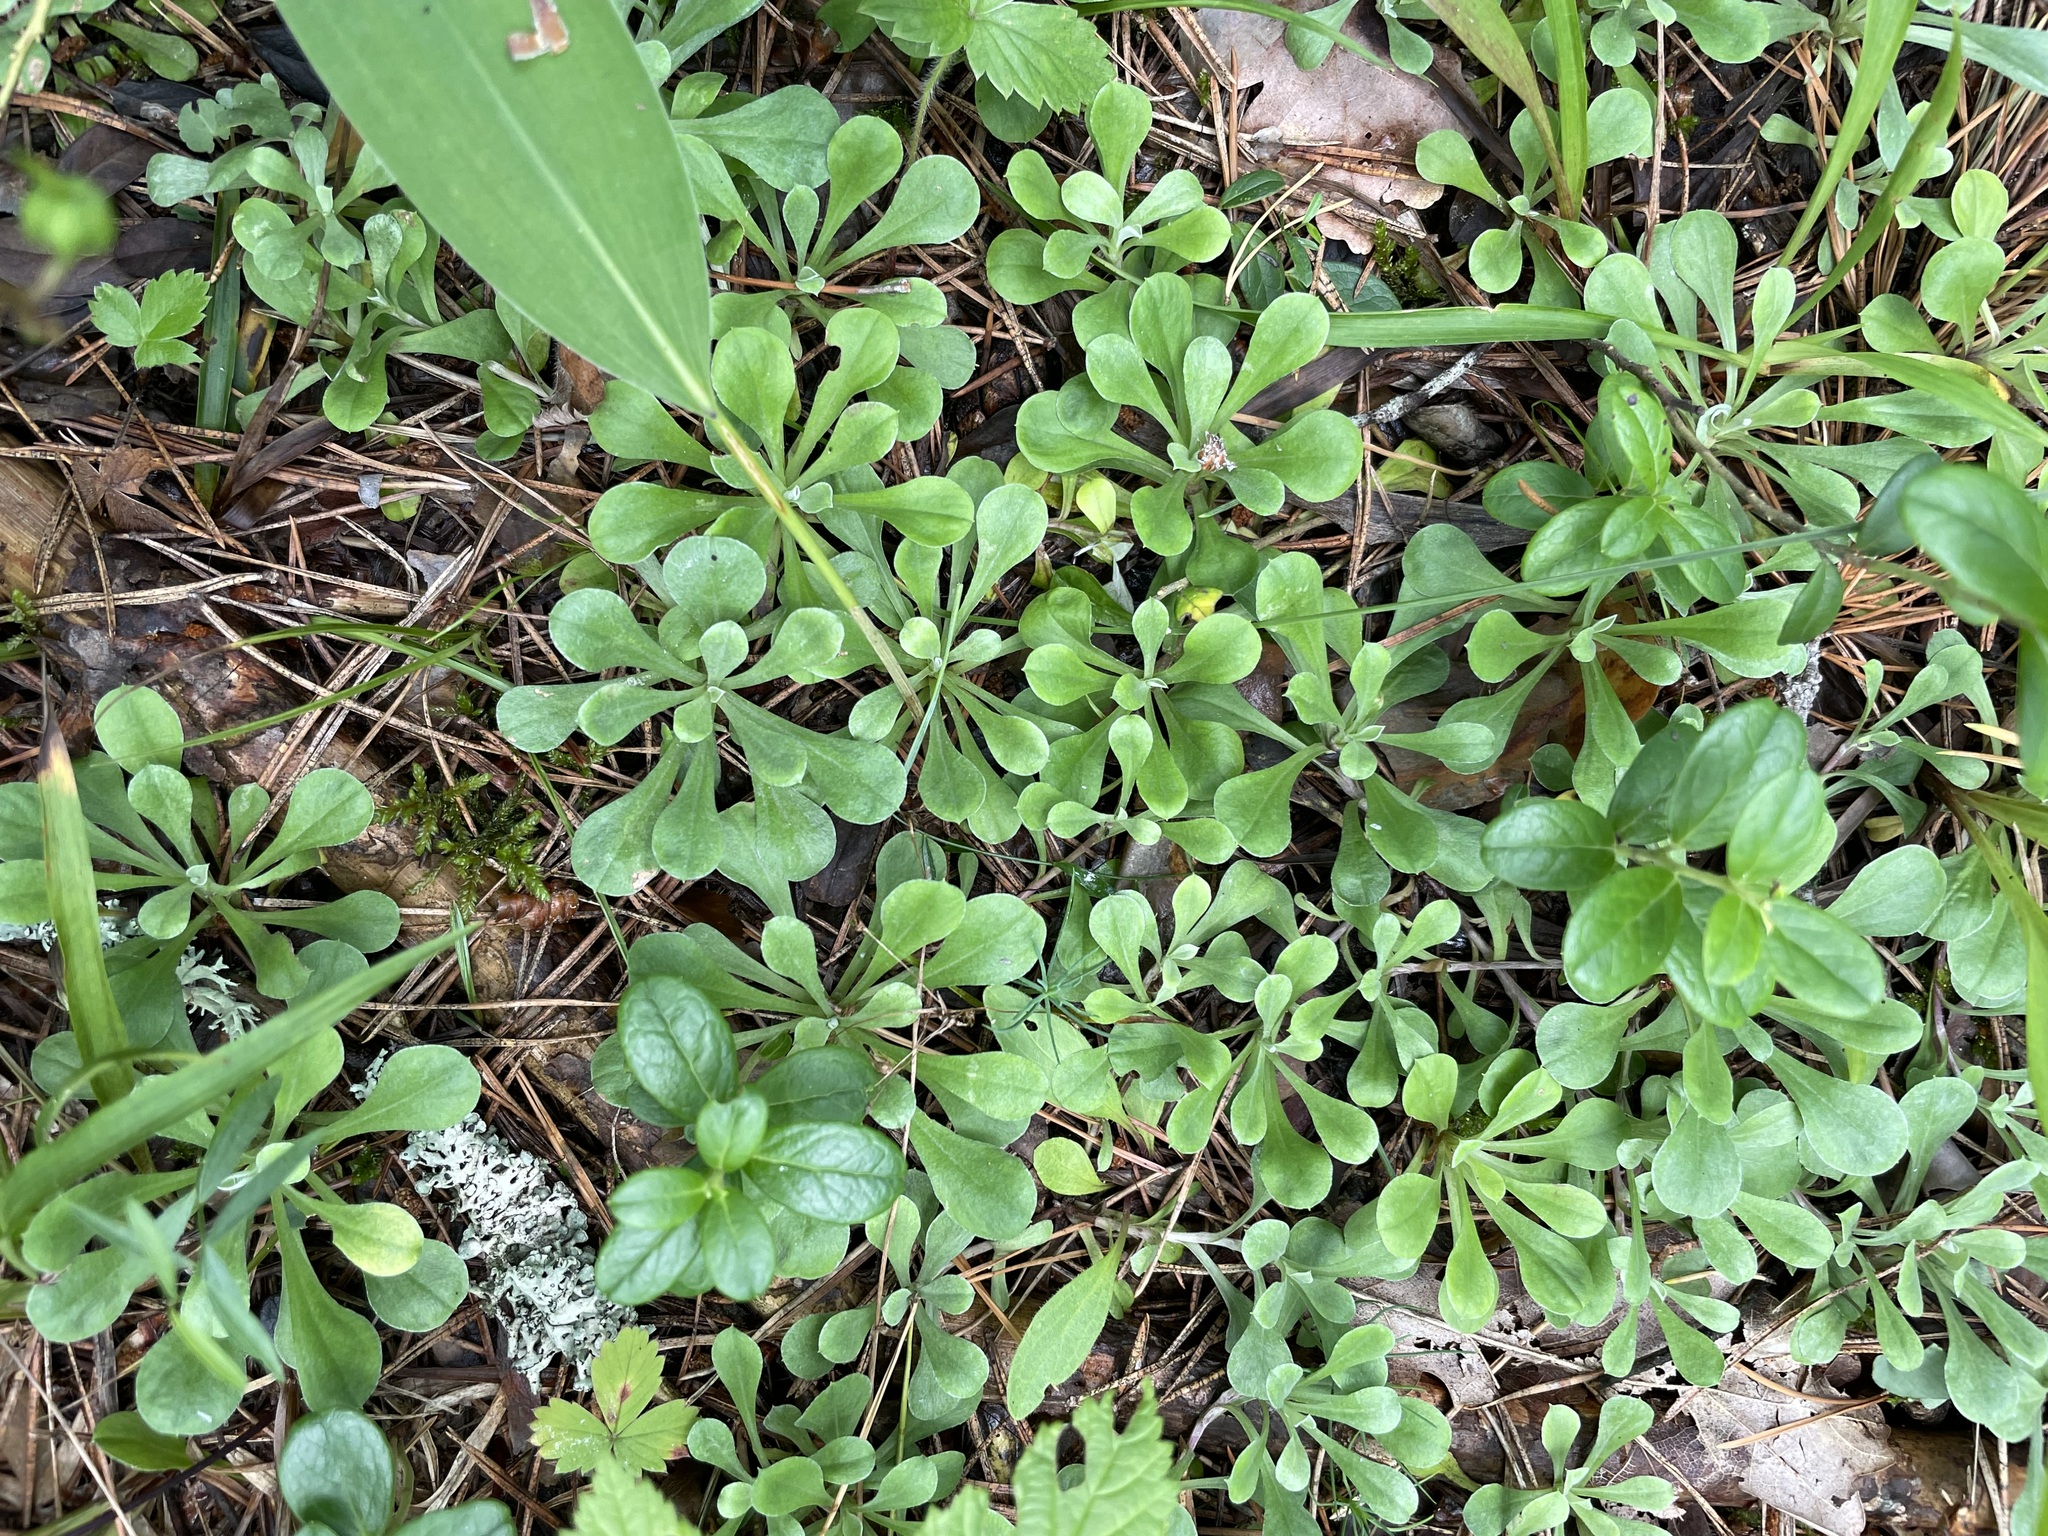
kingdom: Plantae
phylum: Tracheophyta
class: Magnoliopsida
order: Asterales
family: Asteraceae
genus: Antennaria
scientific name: Antennaria dioica
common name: Mountain everlasting
